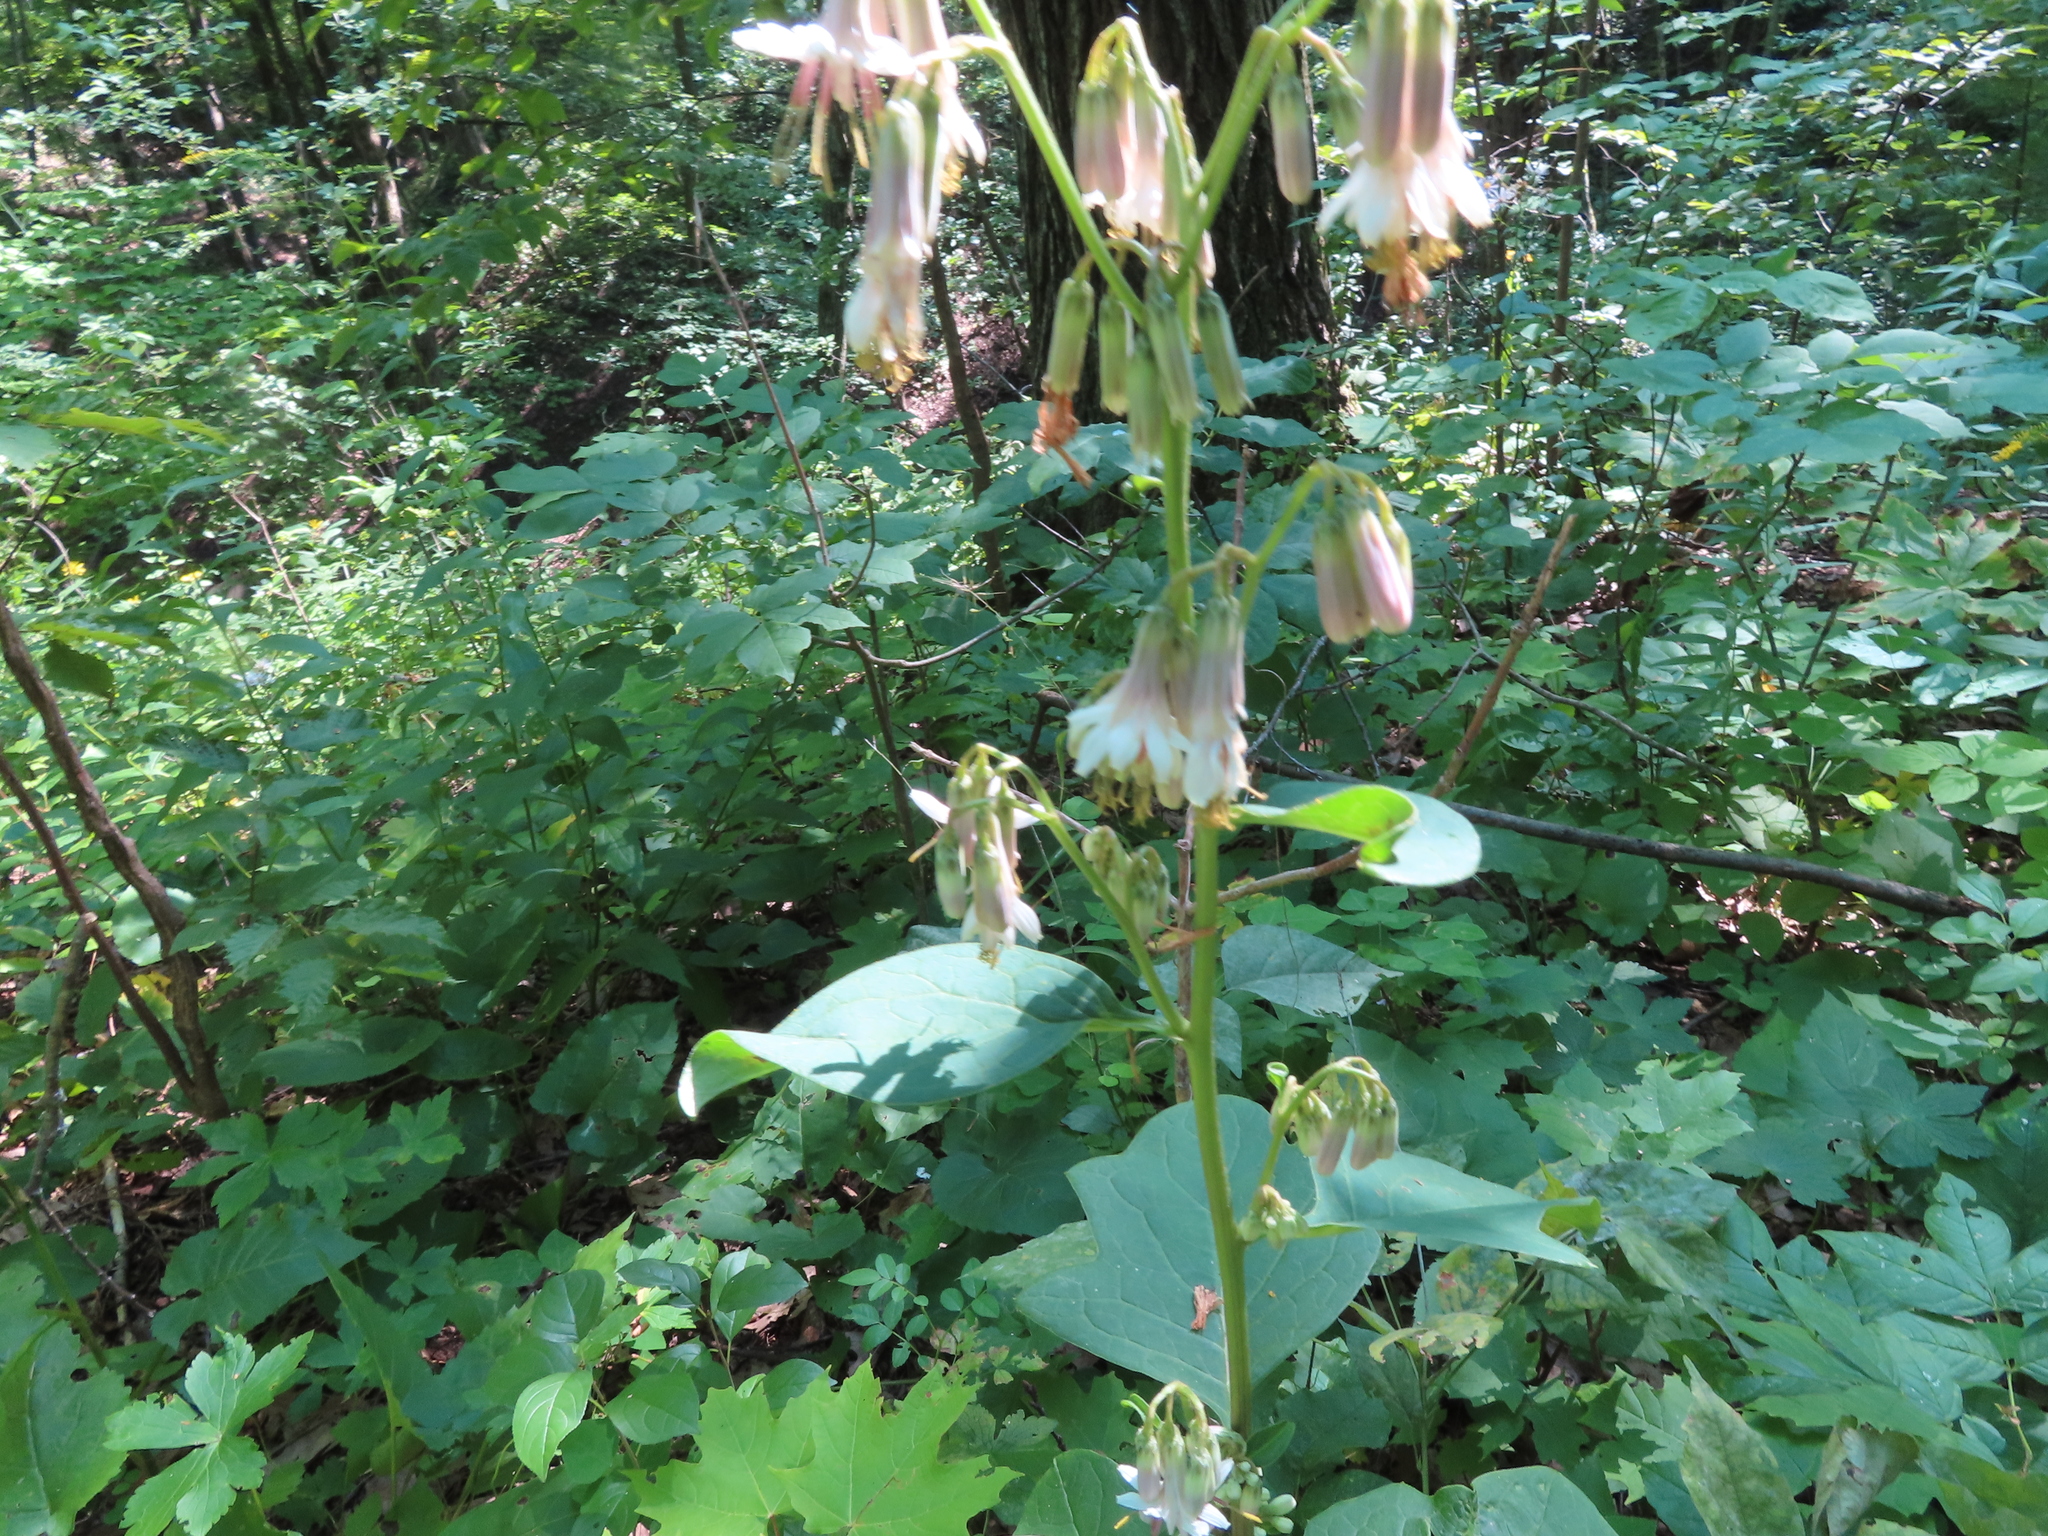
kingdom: Plantae
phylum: Tracheophyta
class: Magnoliopsida
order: Asterales
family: Asteraceae
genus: Nabalus
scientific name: Nabalus albus
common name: White rattlesnakeroot
